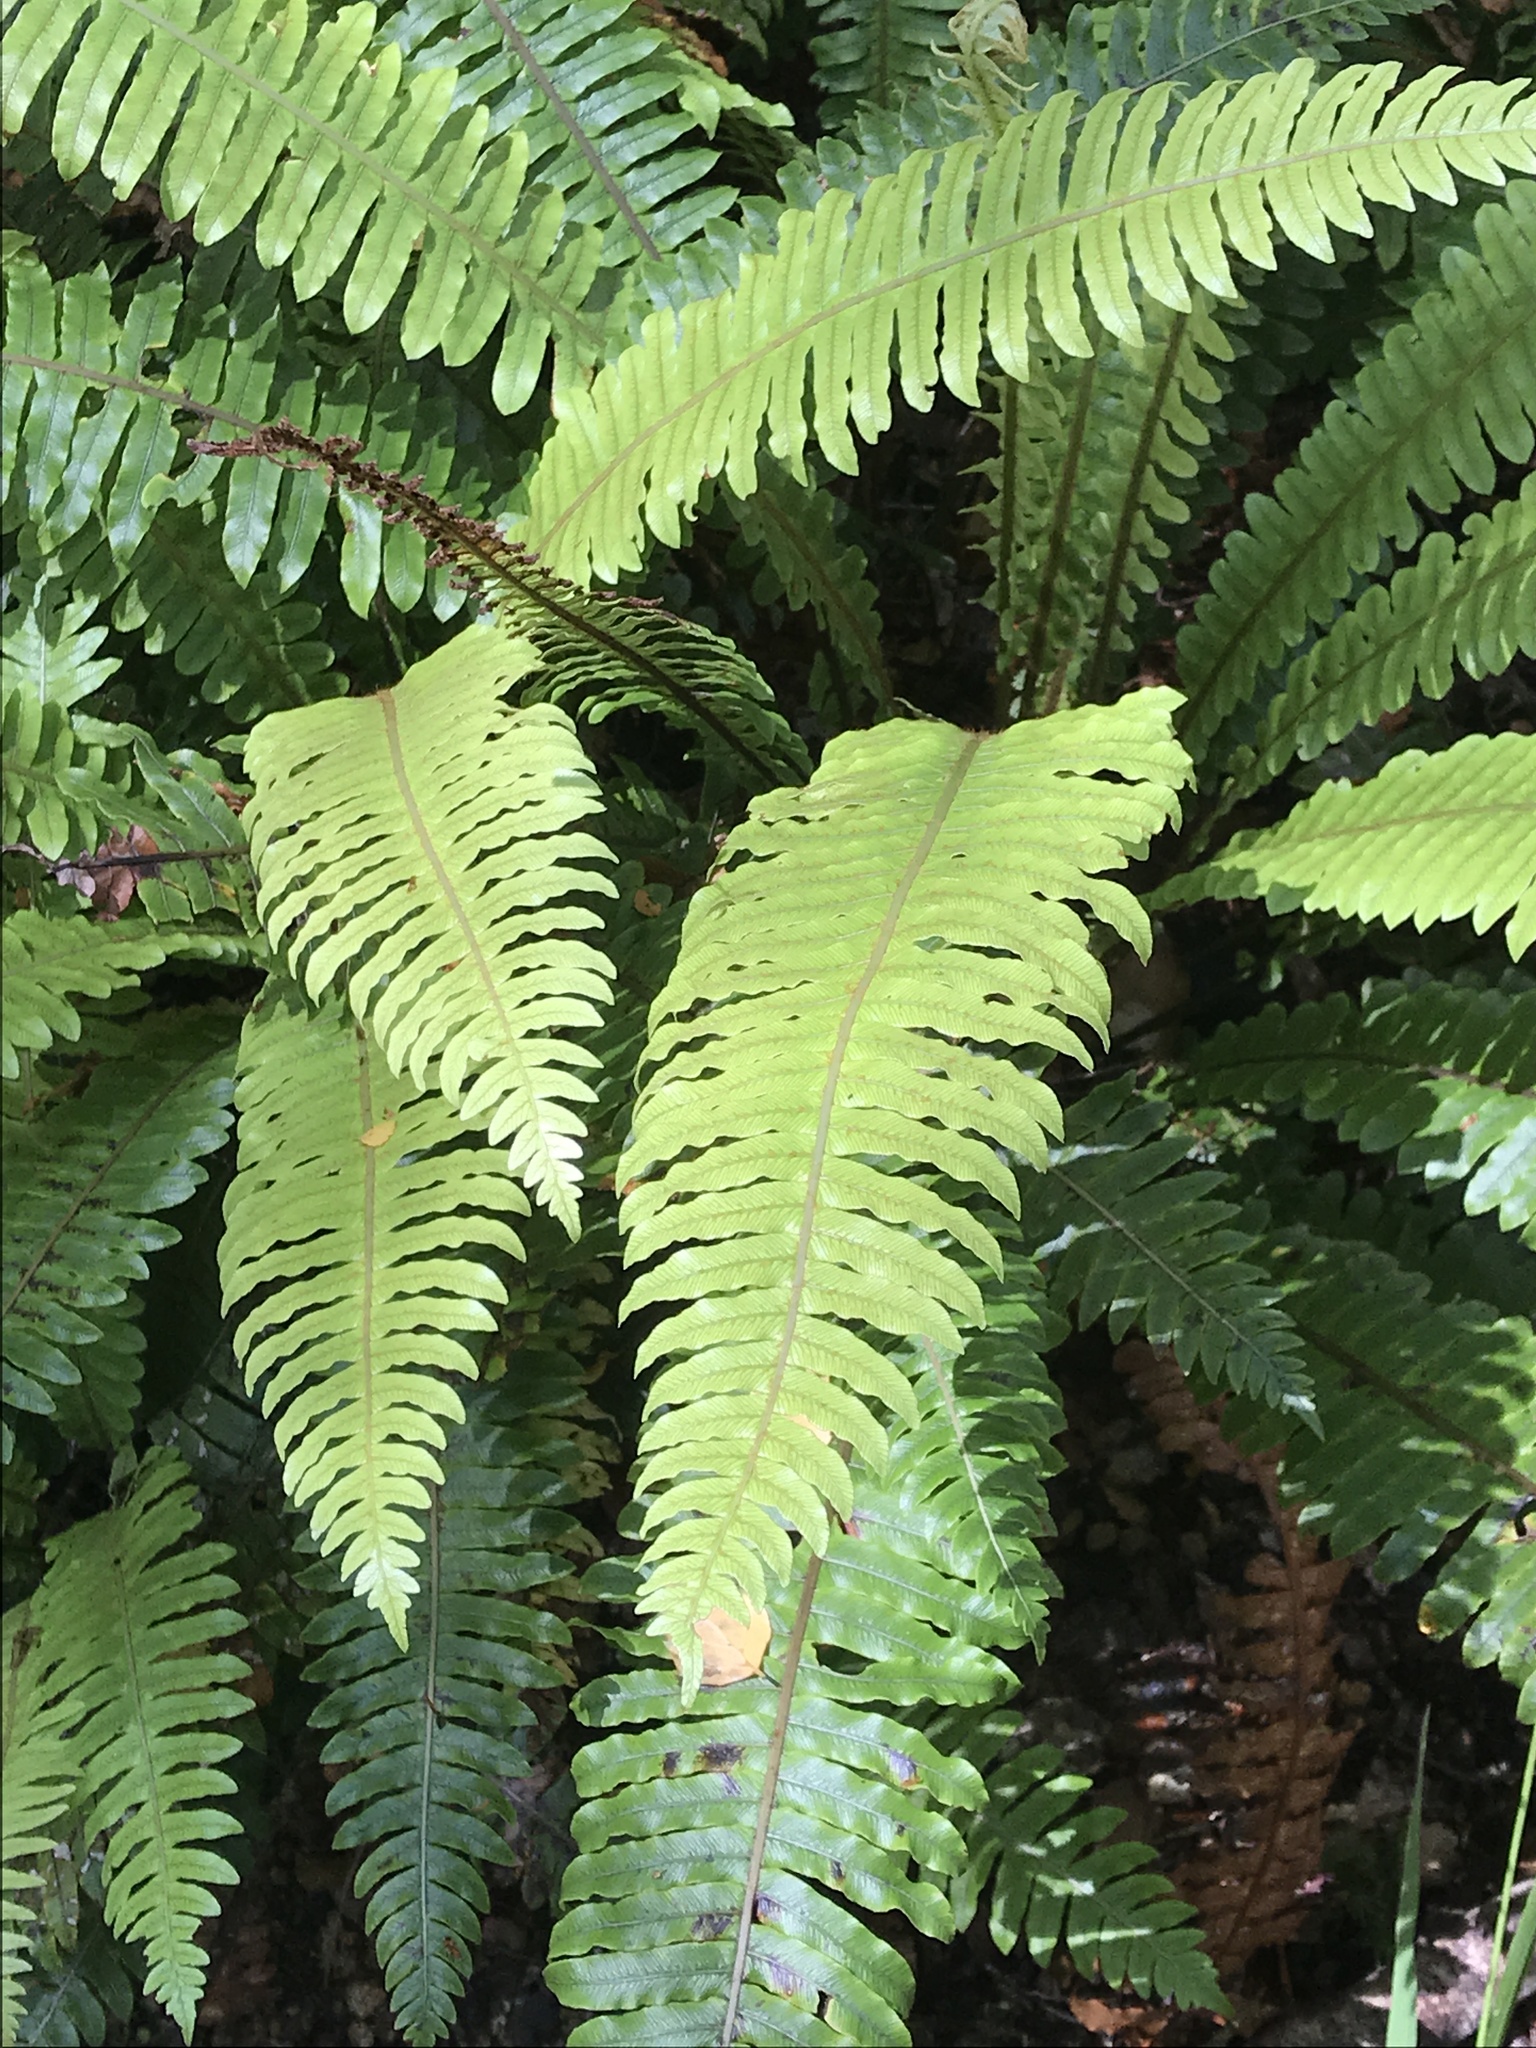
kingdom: Plantae
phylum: Tracheophyta
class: Polypodiopsida
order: Polypodiales
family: Blechnaceae
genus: Lomaria
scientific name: Lomaria discolor
